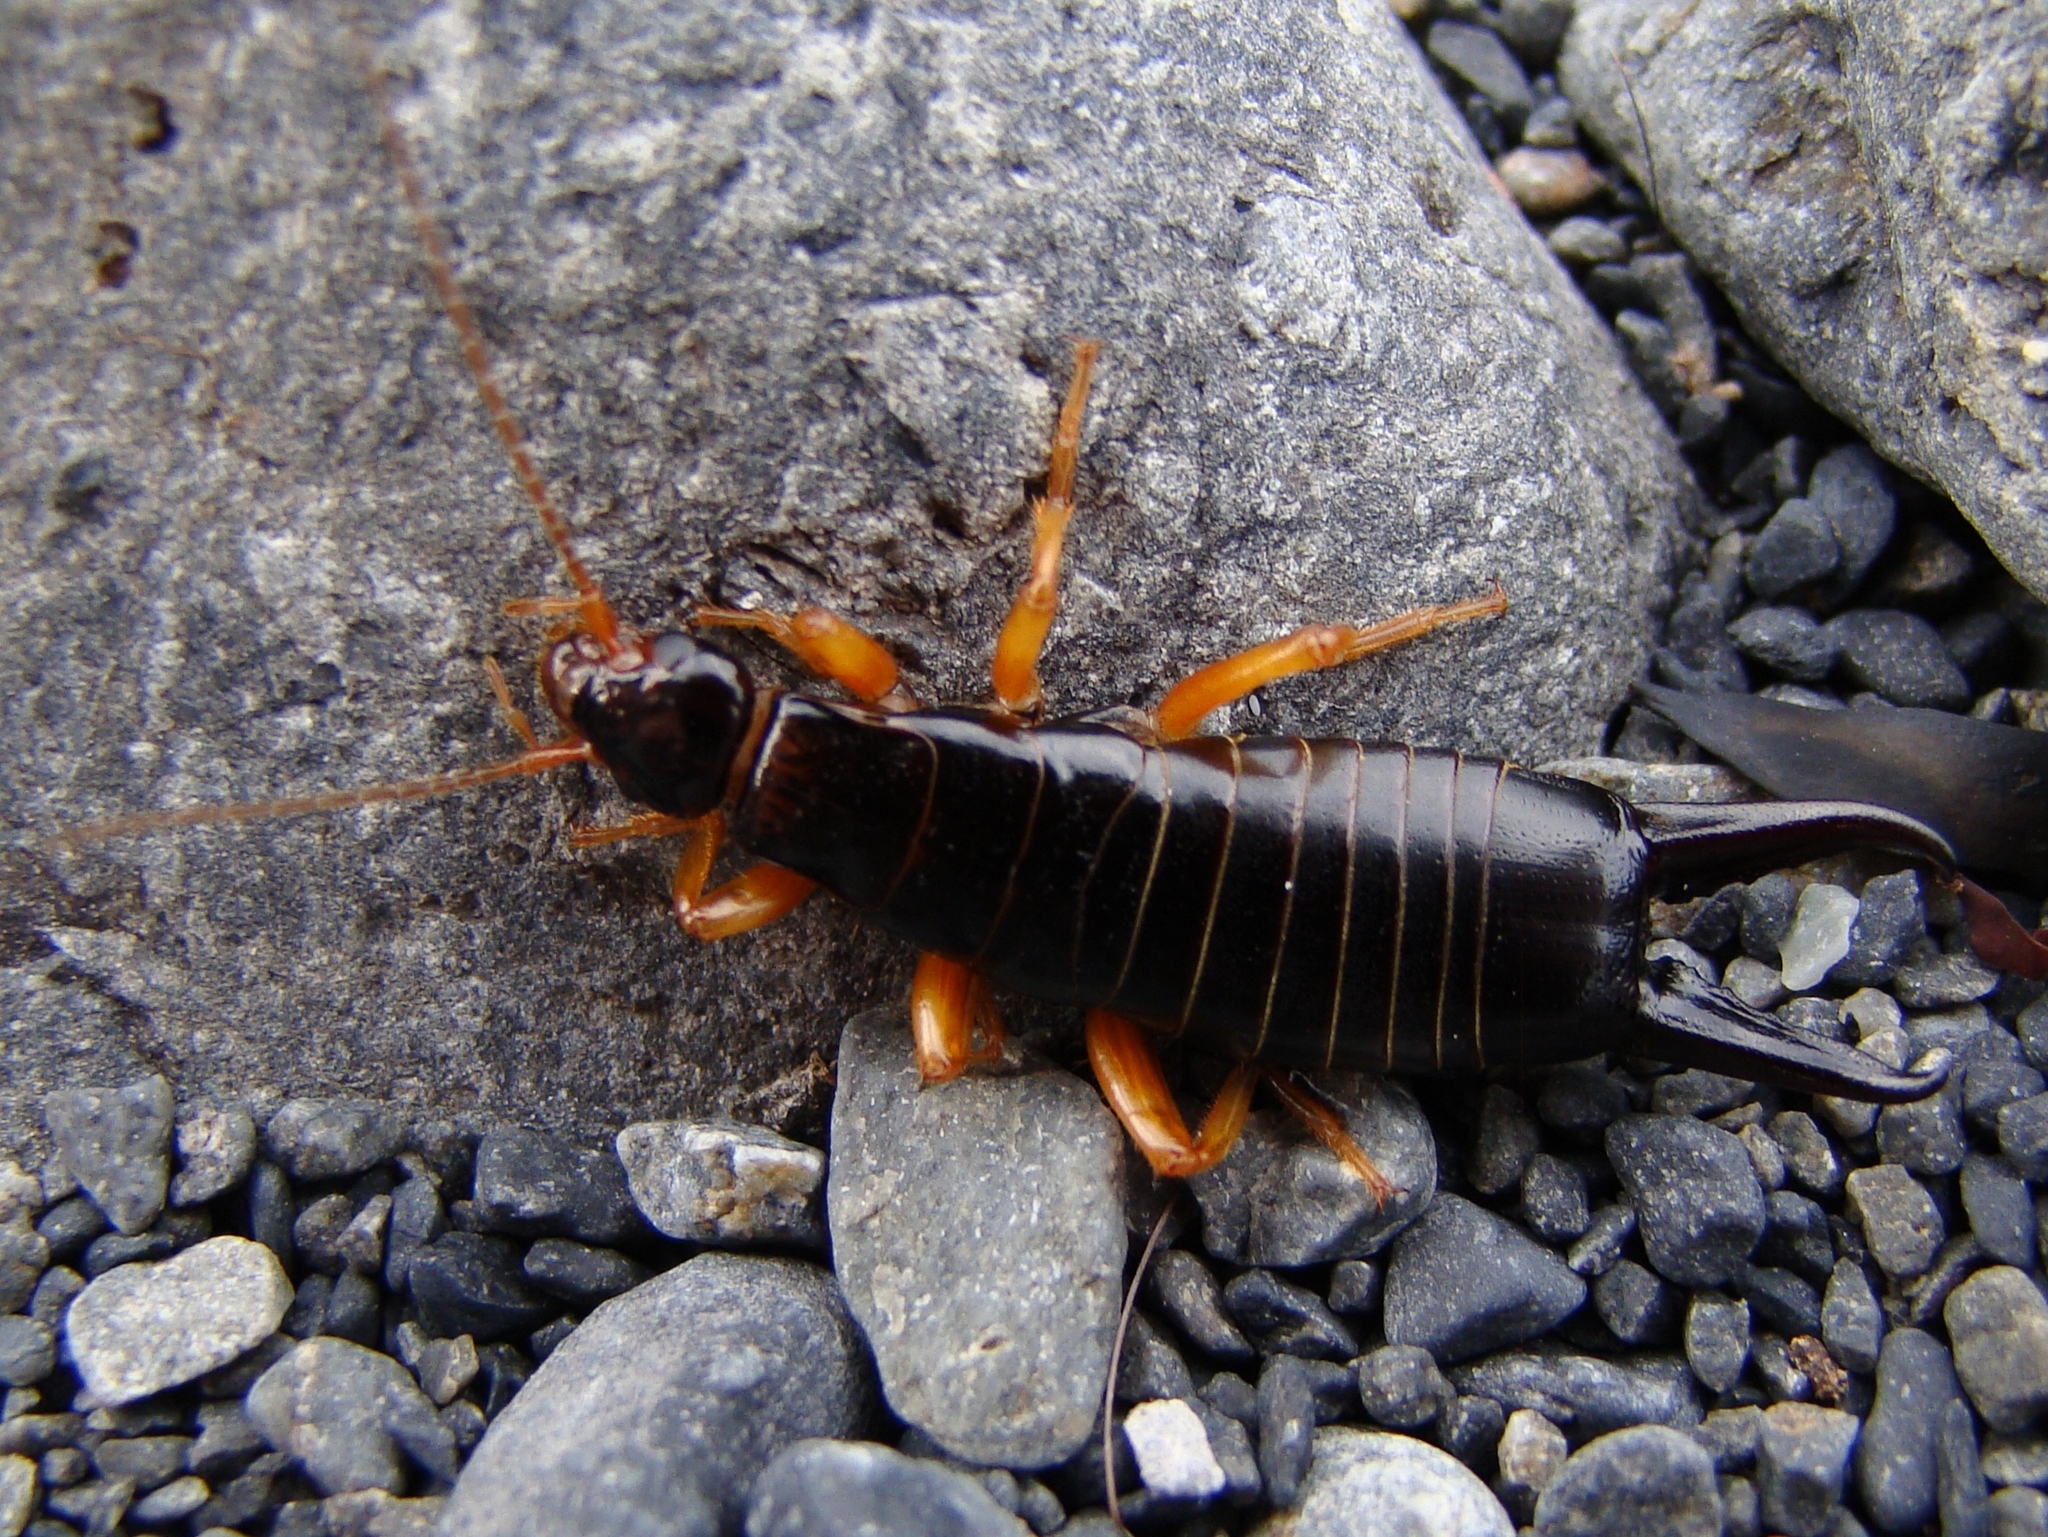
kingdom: Animalia
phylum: Arthropoda
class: Insecta
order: Dermaptera
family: Anisolabididae
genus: Anisolabis
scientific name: Anisolabis littorea
